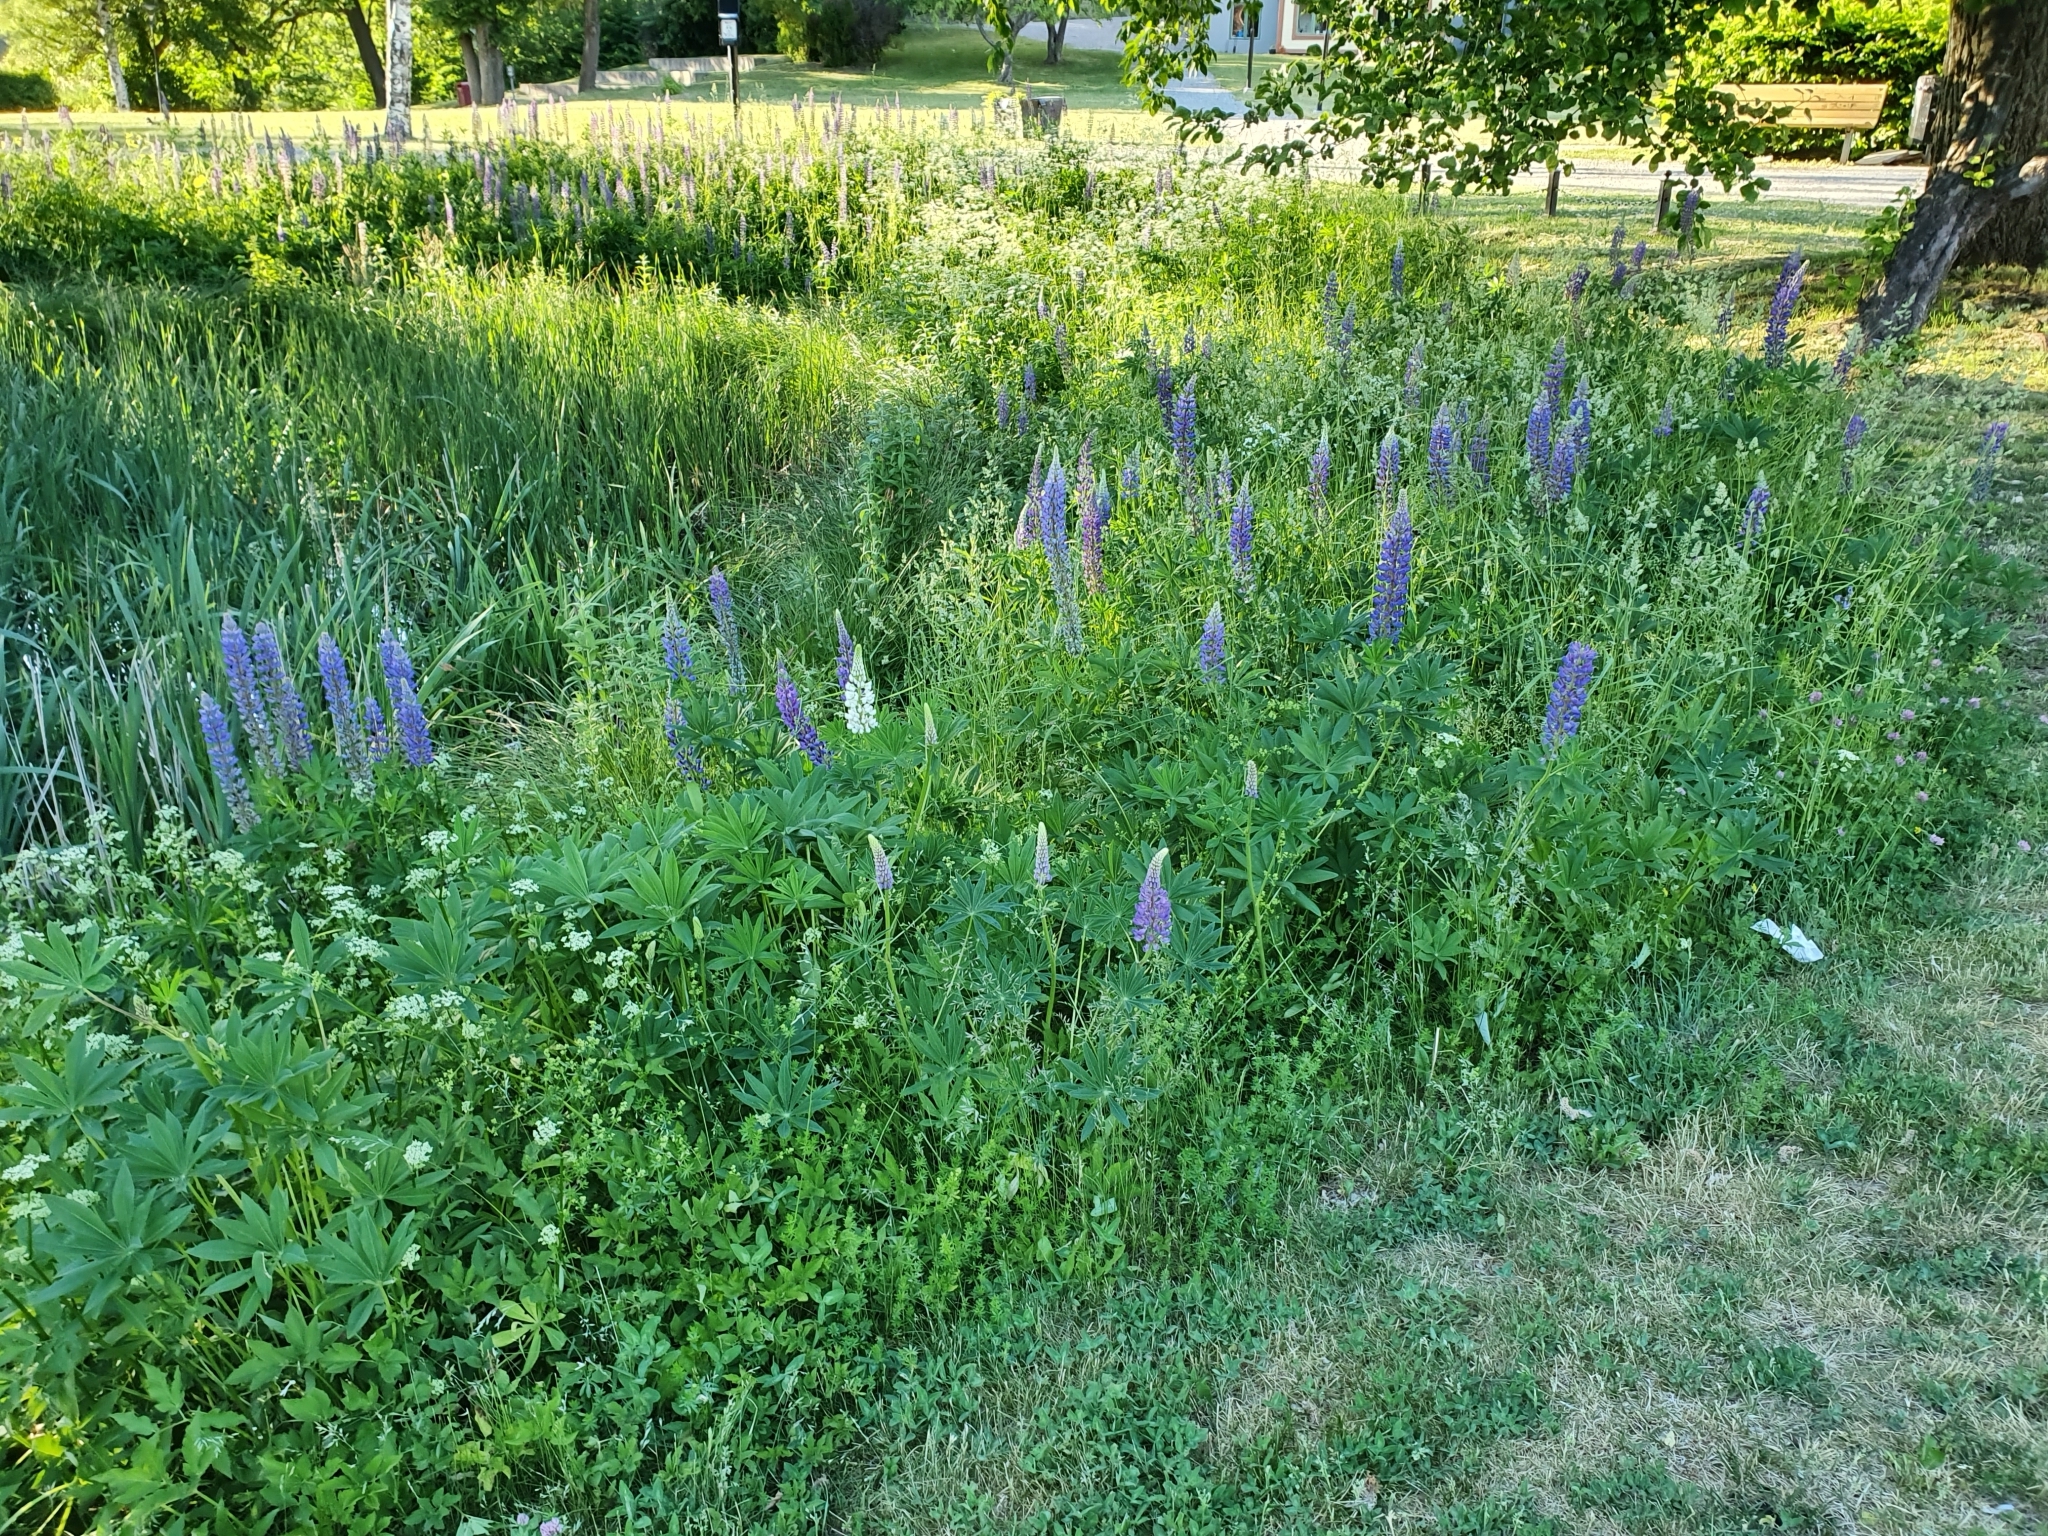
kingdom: Plantae
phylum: Tracheophyta
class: Magnoliopsida
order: Fabales
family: Fabaceae
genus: Lupinus
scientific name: Lupinus polyphyllus
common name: Garden lupin
